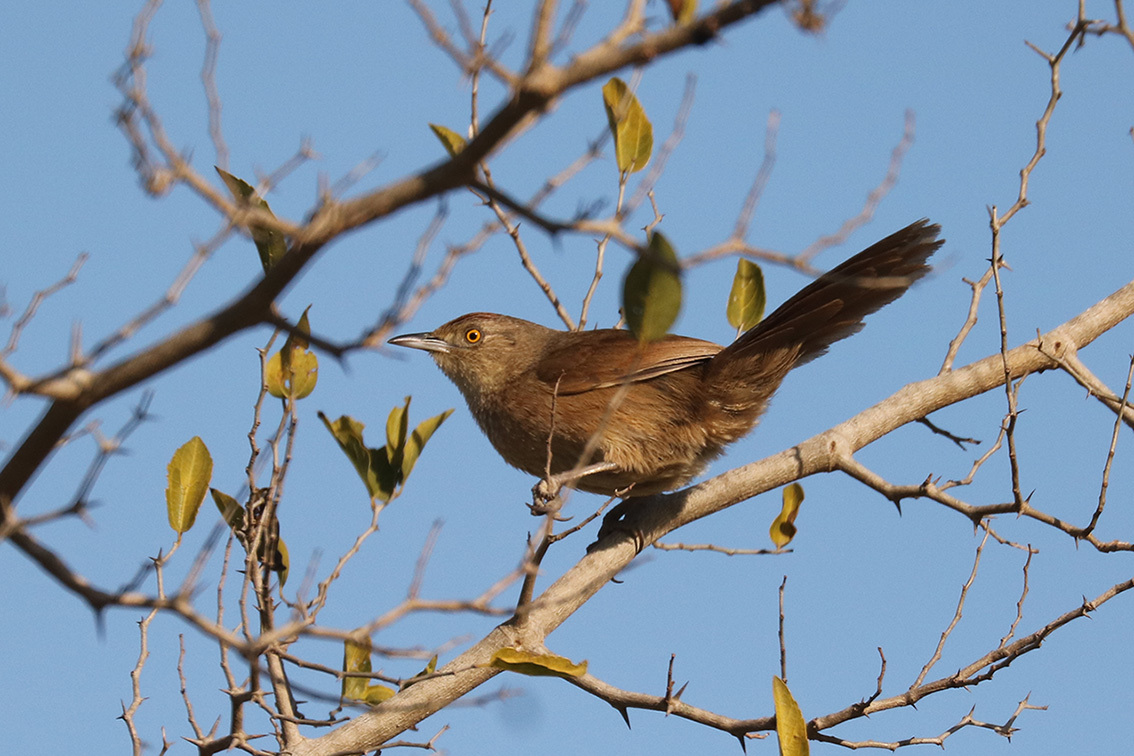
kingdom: Animalia
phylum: Chordata
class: Aves
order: Passeriformes
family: Furnariidae
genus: Phacellodomus
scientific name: Phacellodomus striaticollis
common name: Freckle-breasted thornbird
